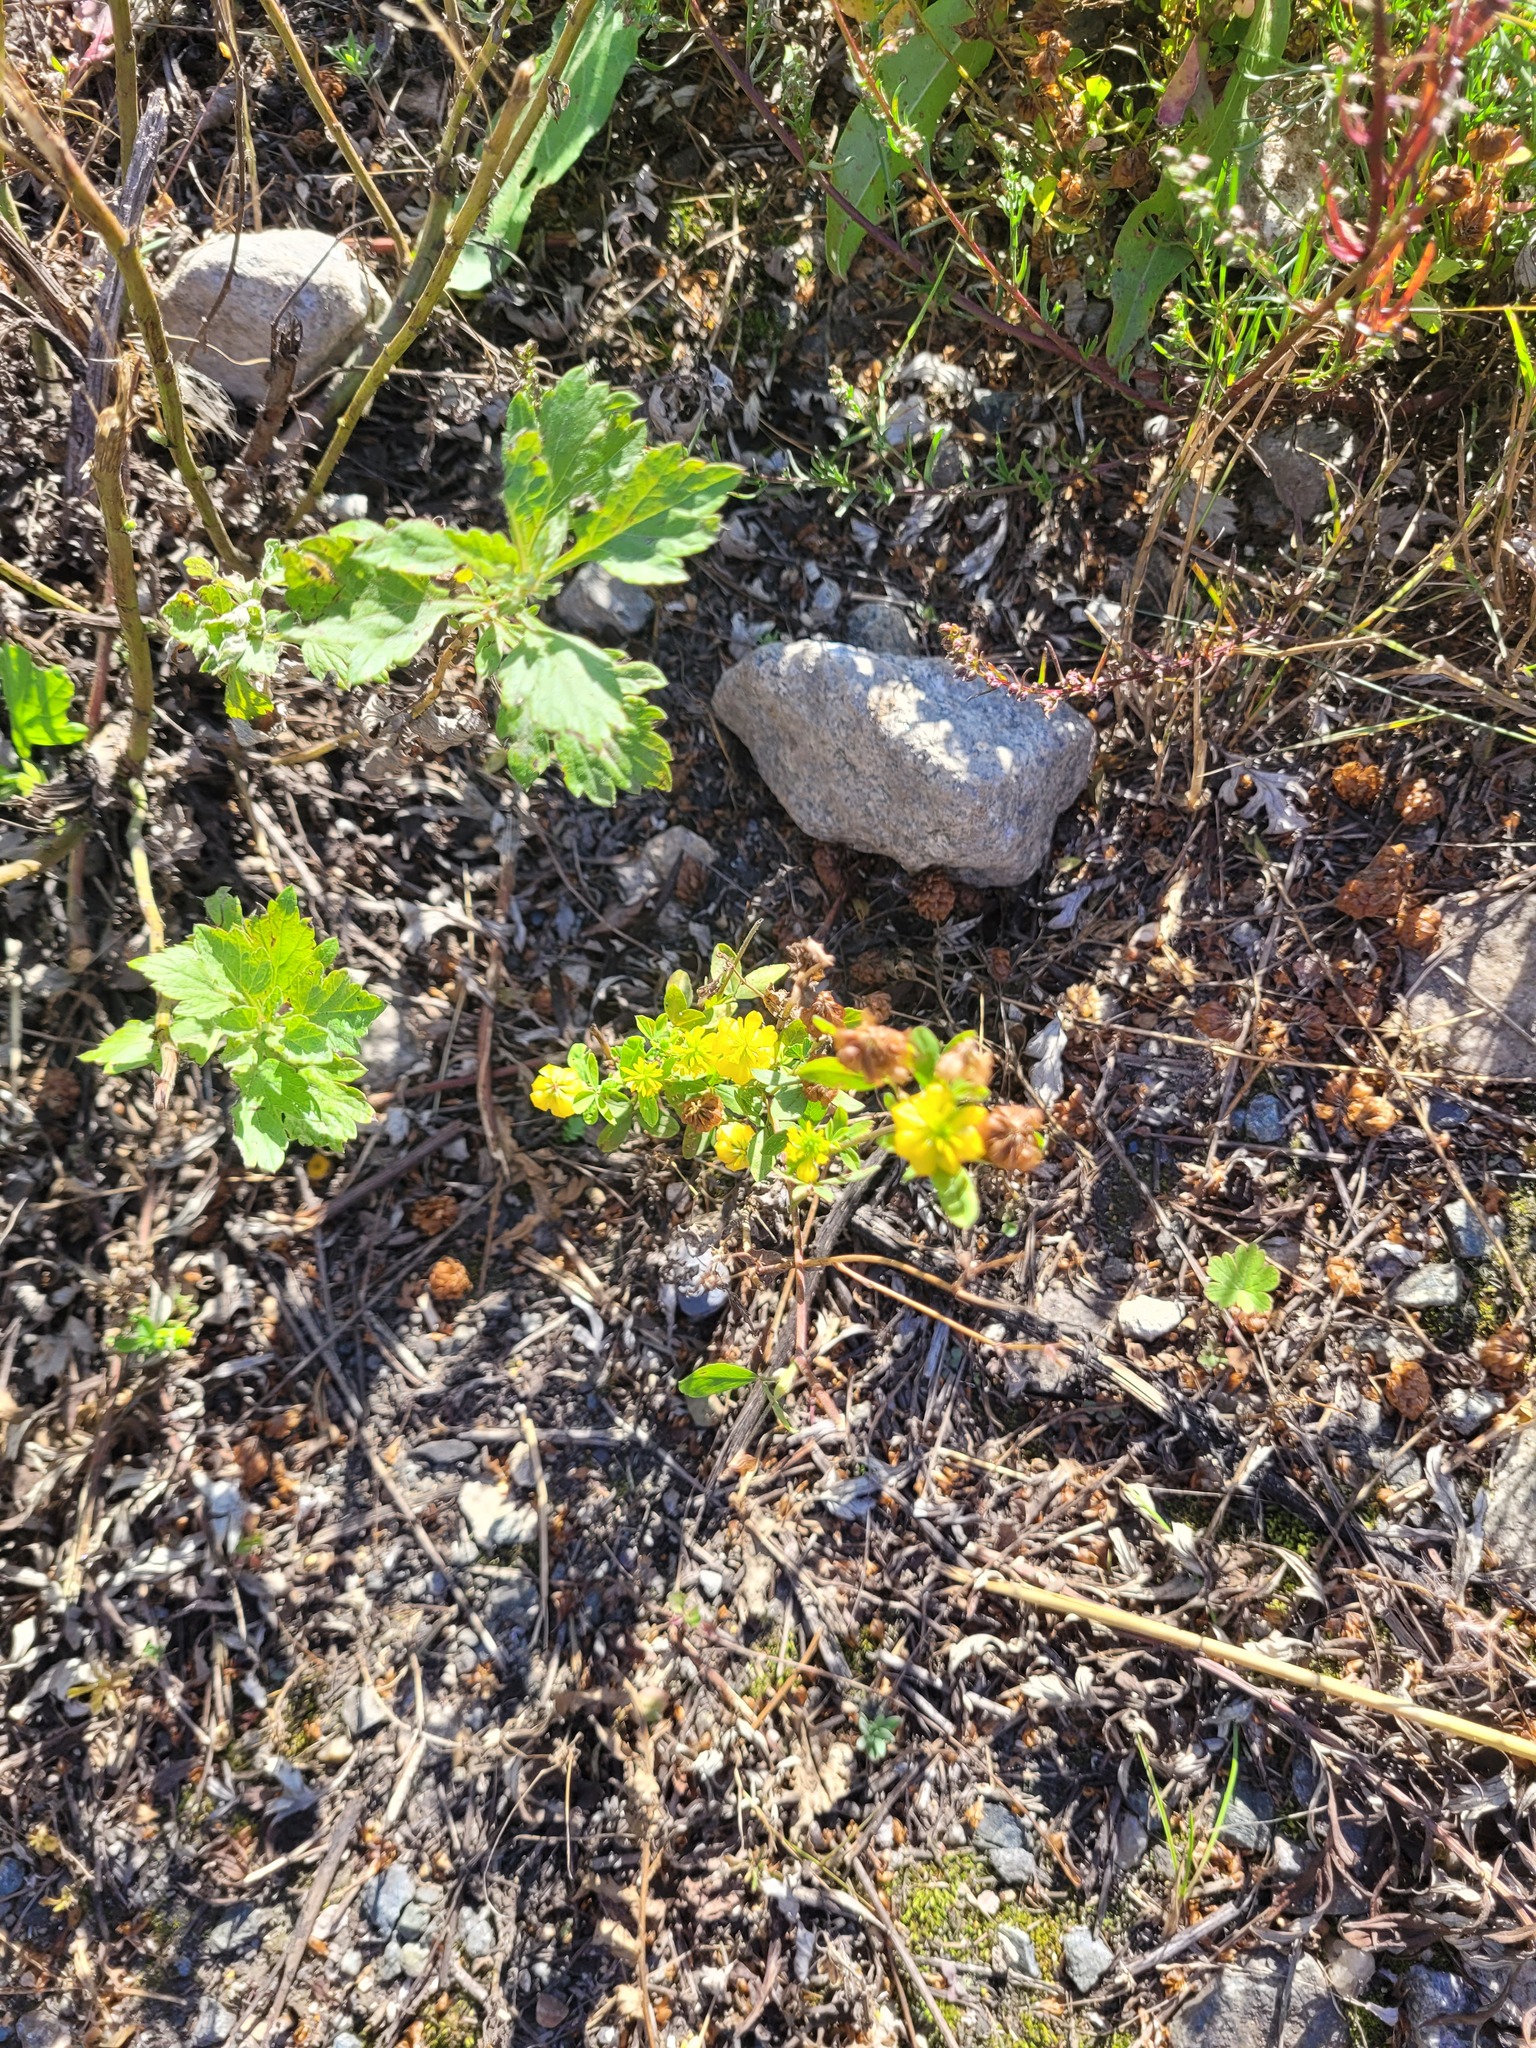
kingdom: Plantae
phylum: Tracheophyta
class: Magnoliopsida
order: Fabales
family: Fabaceae
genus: Trifolium
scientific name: Trifolium aureum
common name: Golden clover
